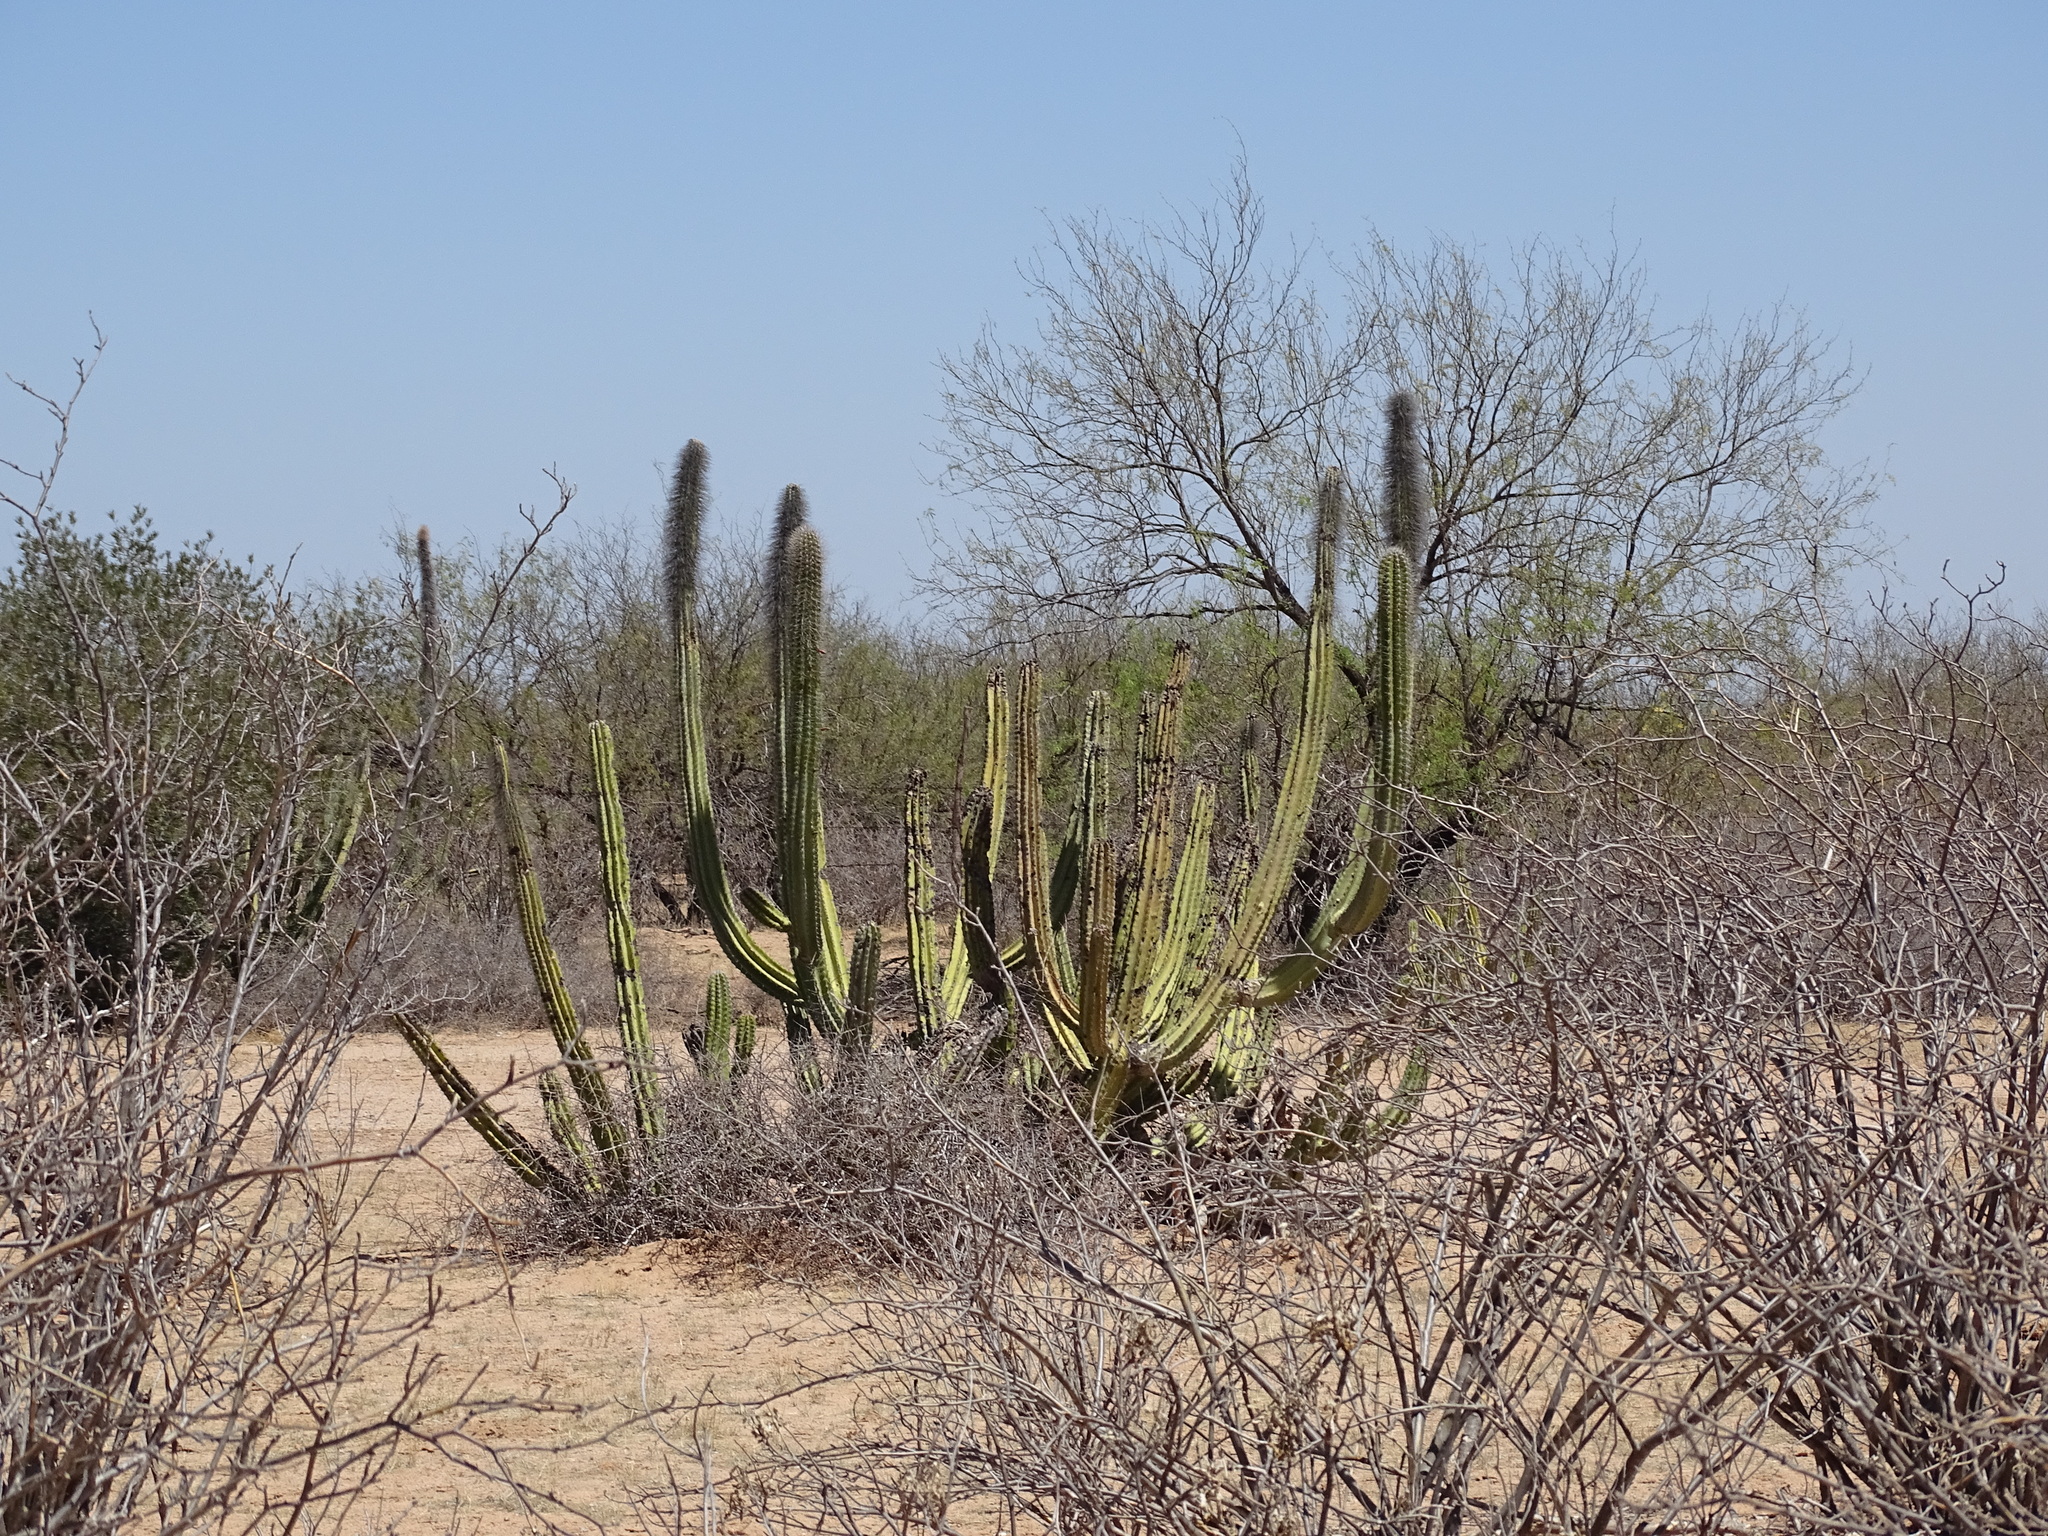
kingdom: Plantae
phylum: Tracheophyta
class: Magnoliopsida
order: Caryophyllales
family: Cactaceae
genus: Pachycereus
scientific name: Pachycereus schottii
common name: Senita cactus
